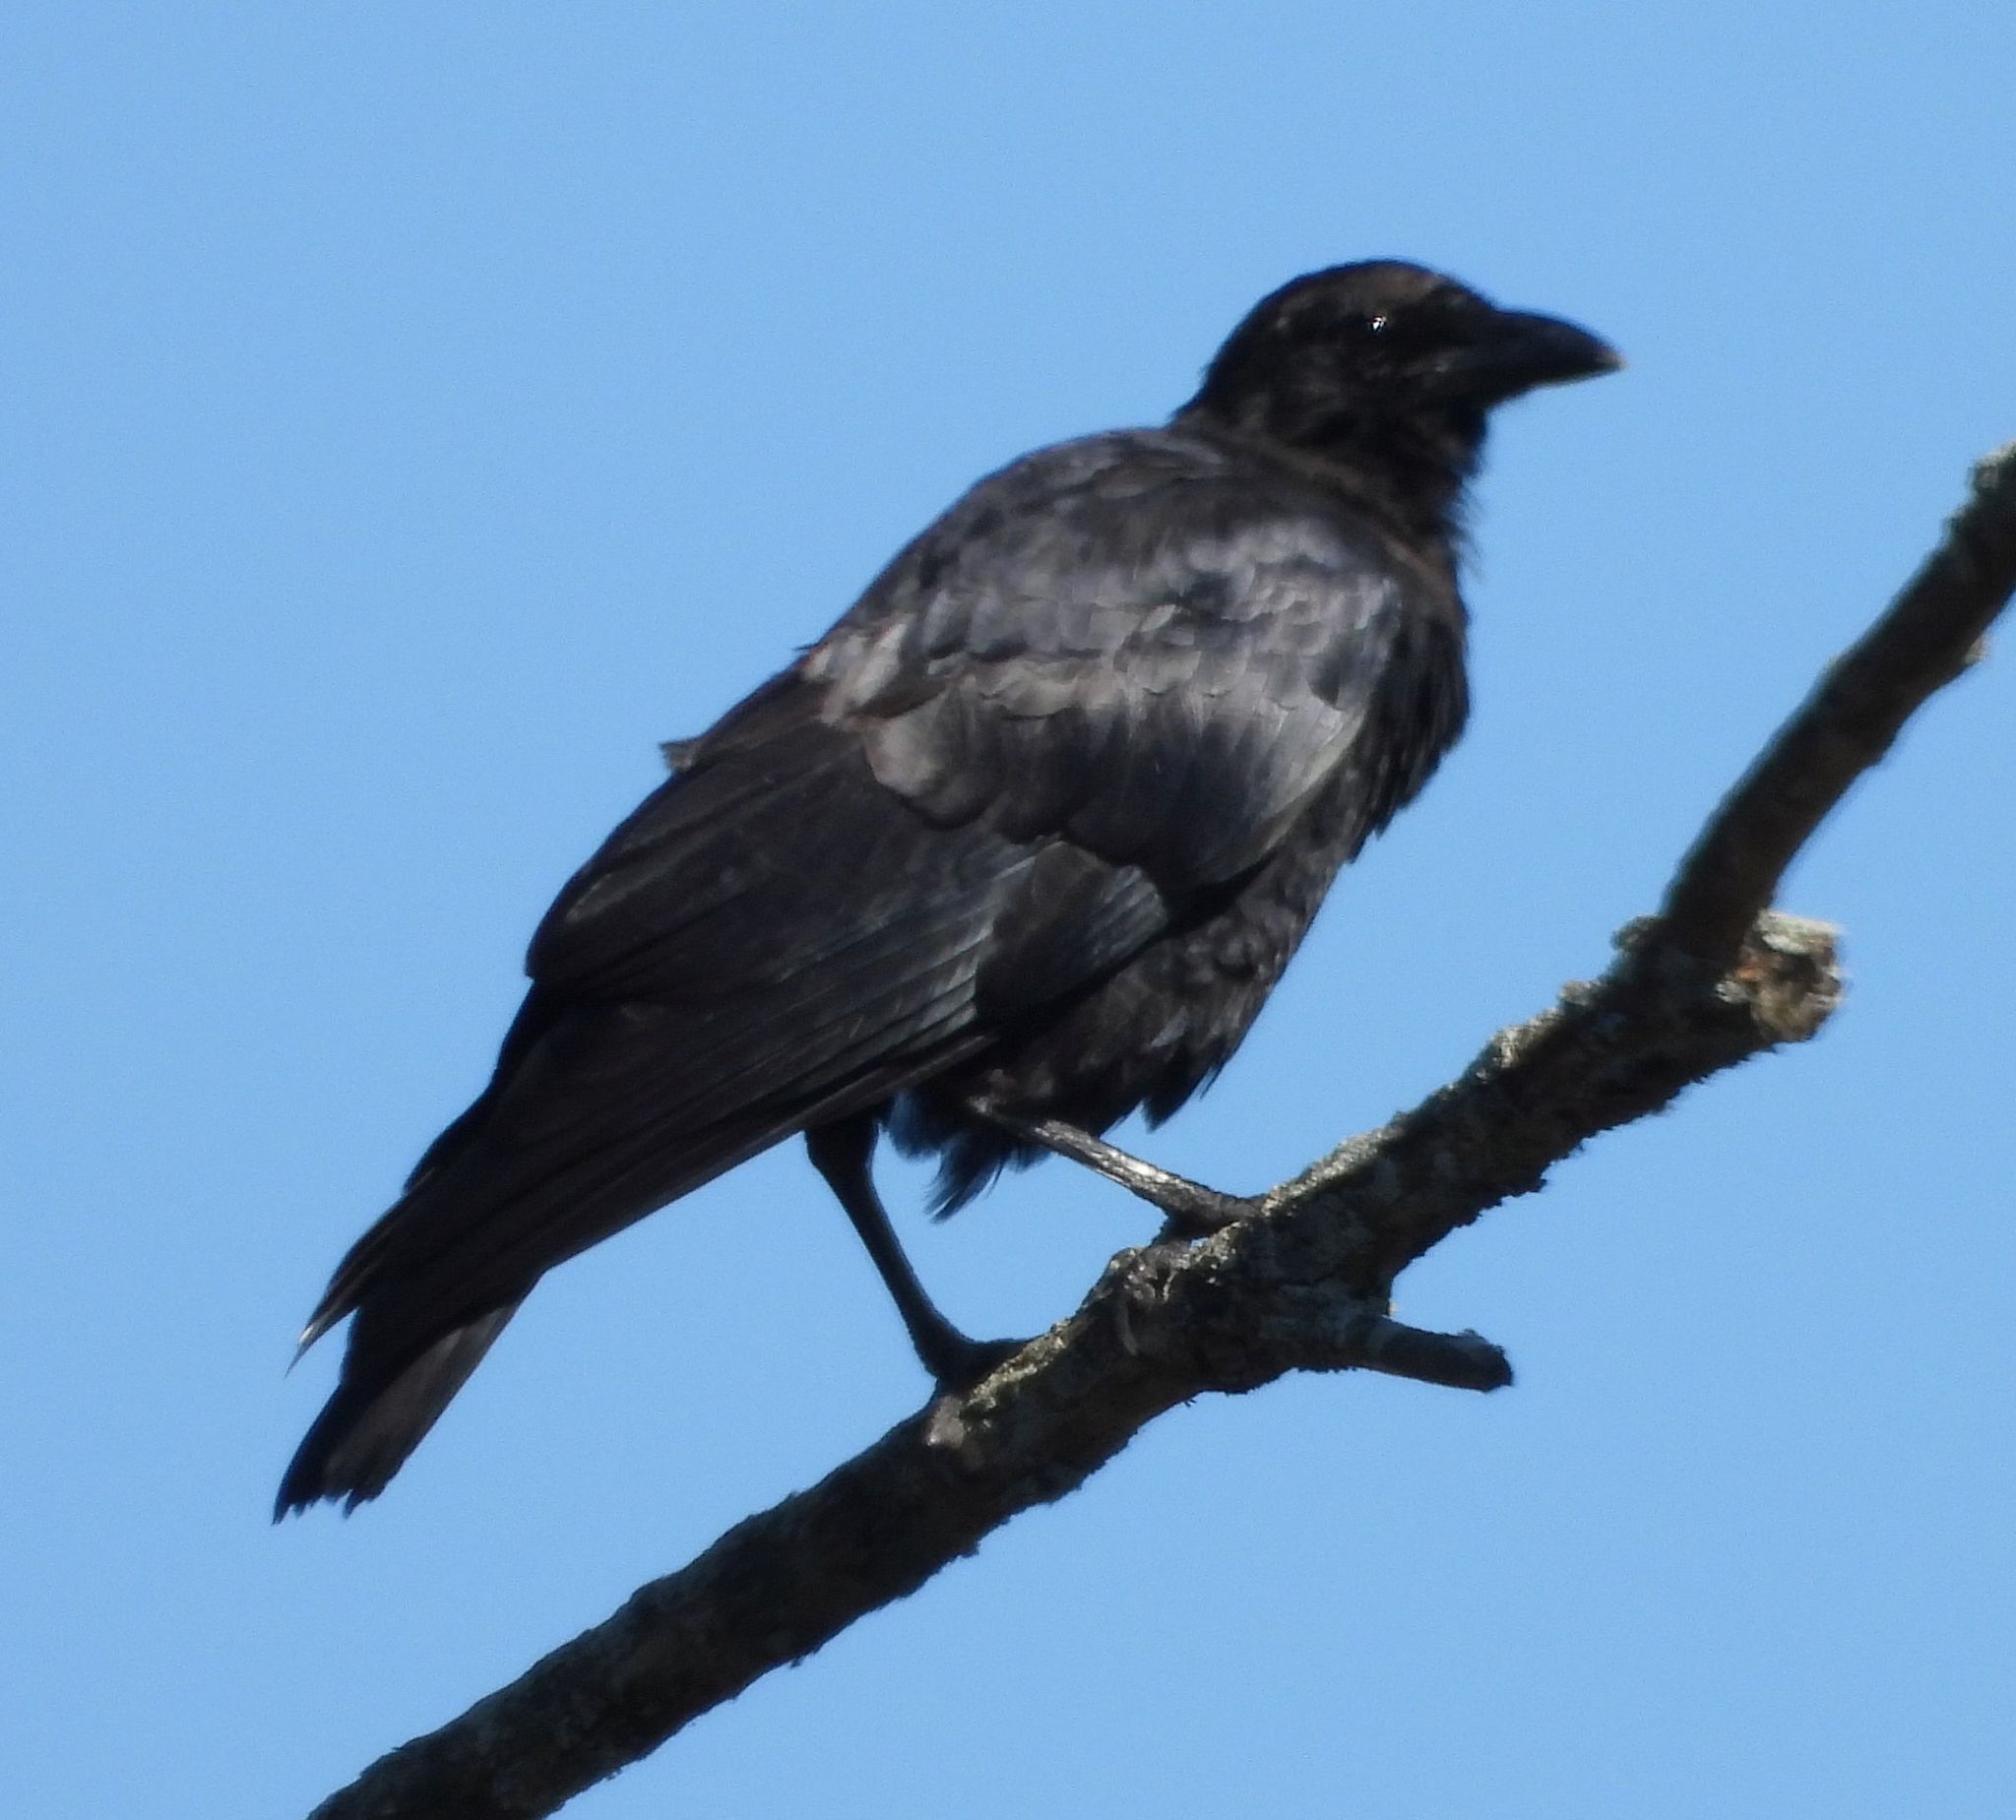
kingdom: Animalia
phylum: Chordata
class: Aves
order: Passeriformes
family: Corvidae
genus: Corvus
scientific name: Corvus brachyrhynchos
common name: American crow
